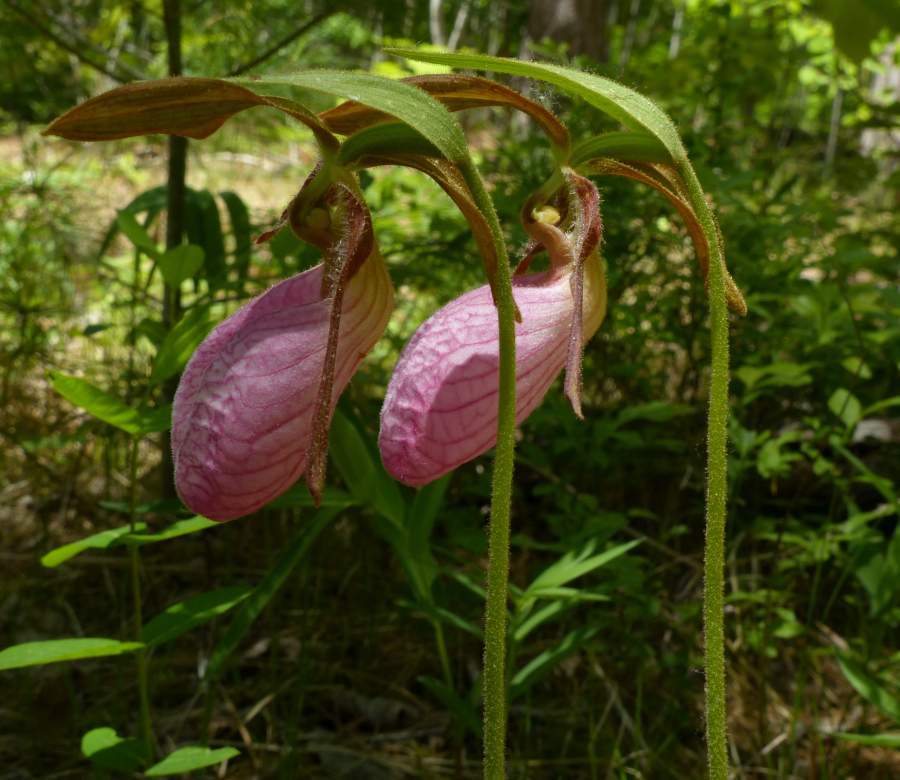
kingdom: Plantae
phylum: Tracheophyta
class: Liliopsida
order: Asparagales
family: Orchidaceae
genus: Cypripedium
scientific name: Cypripedium acaule
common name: Pink lady's-slipper
